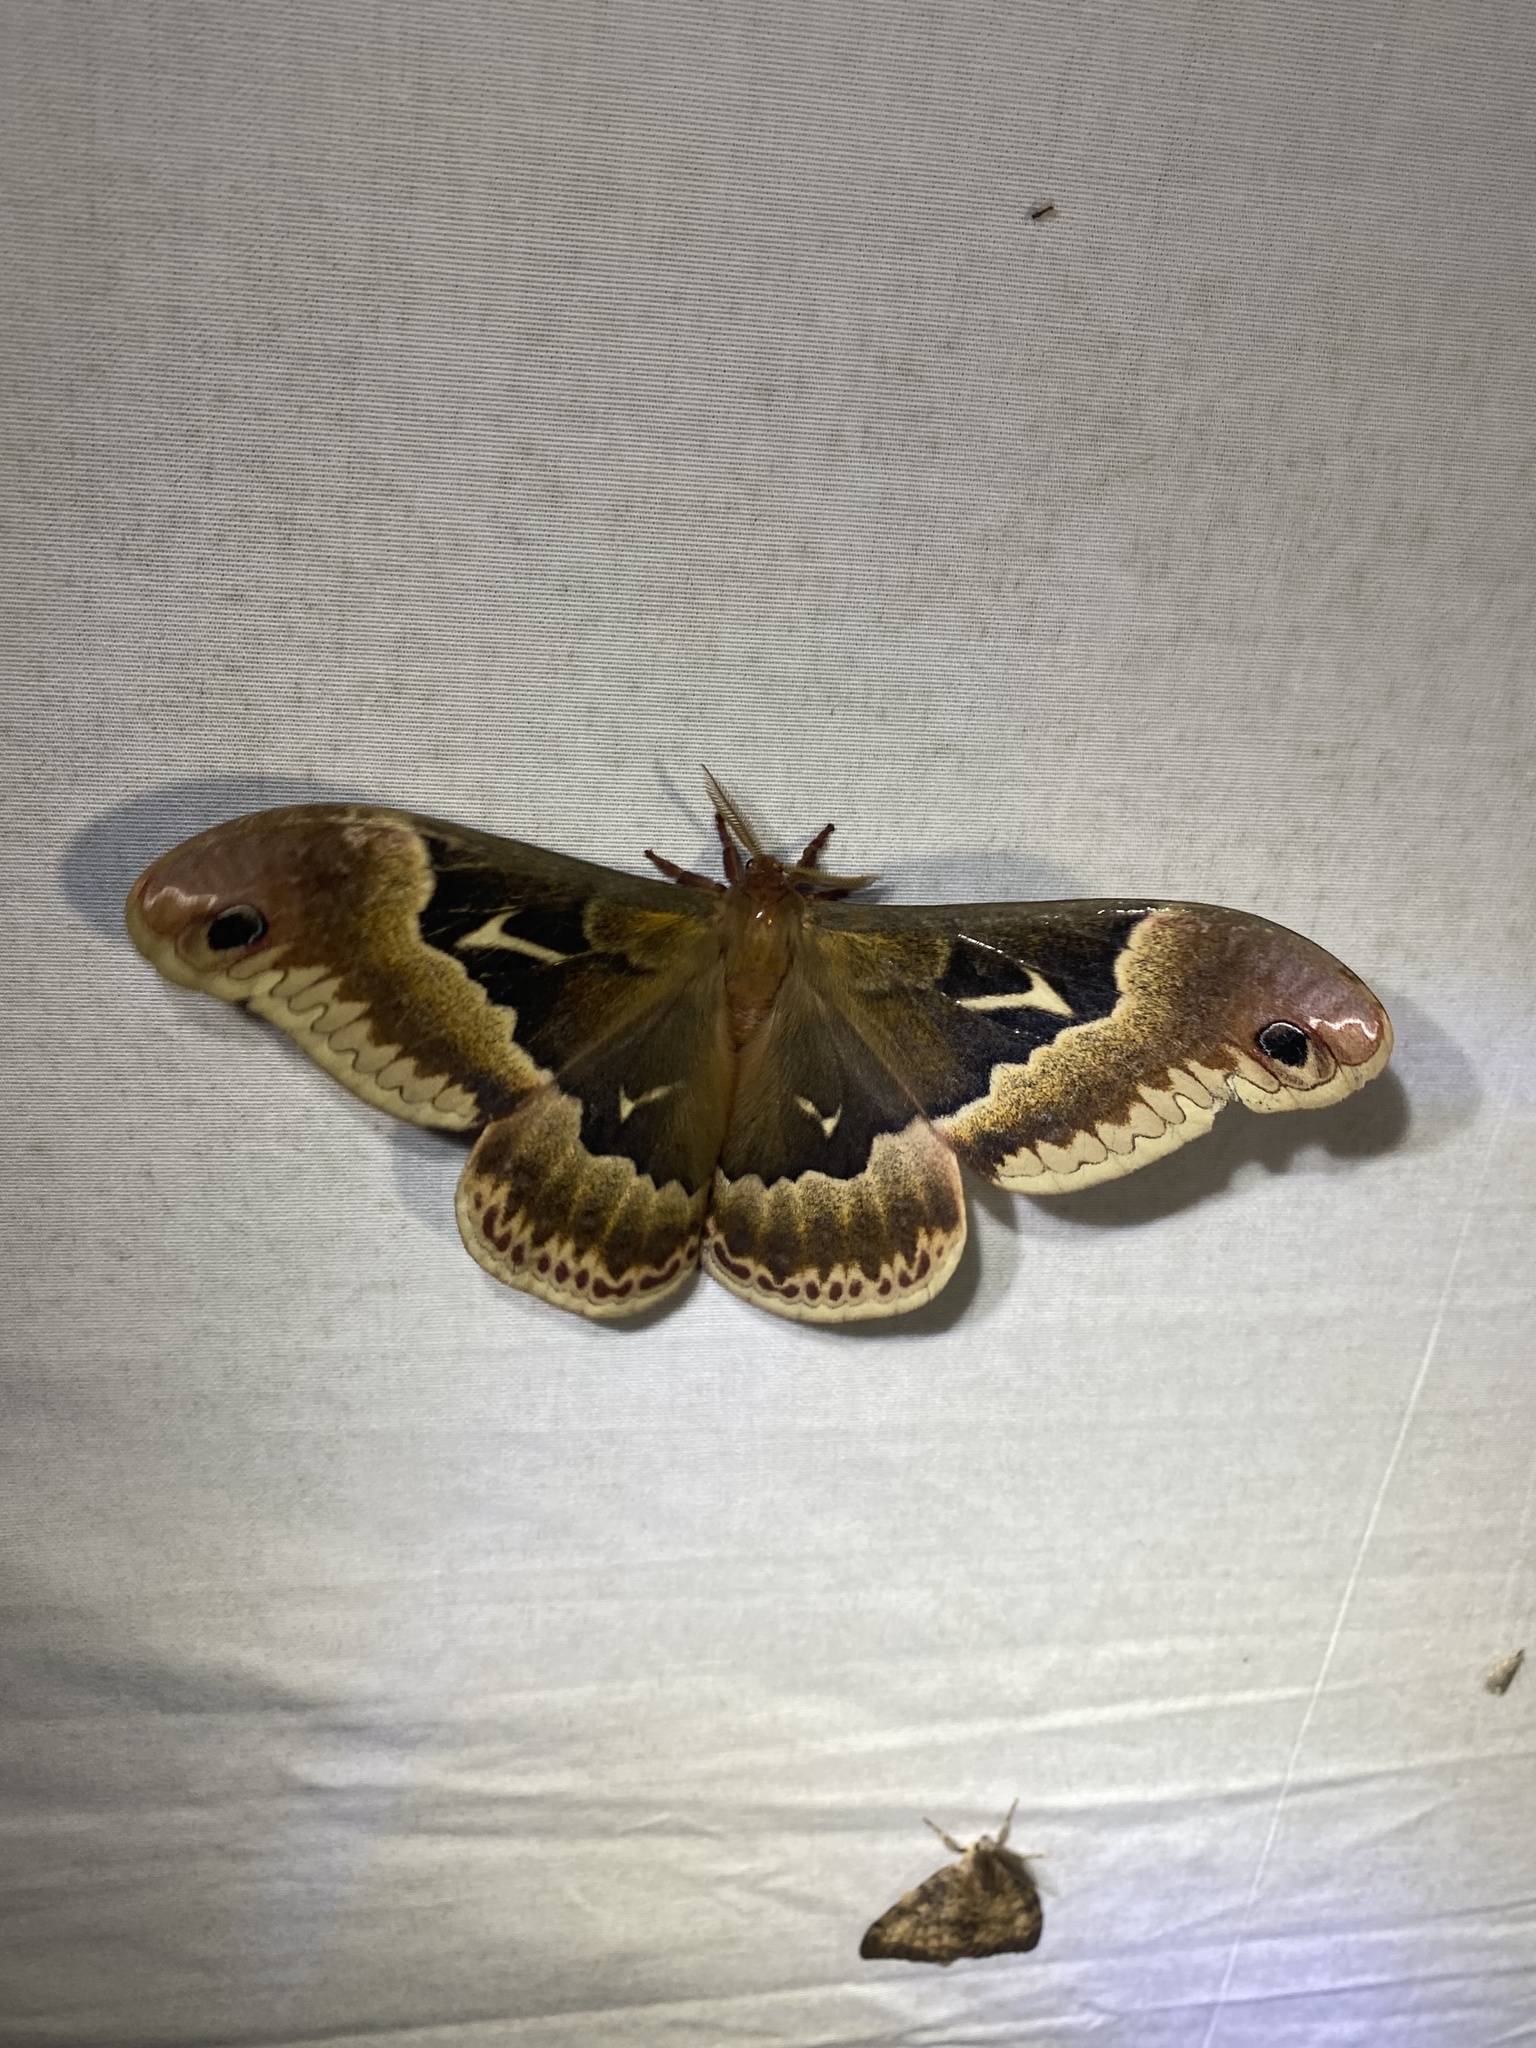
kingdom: Animalia
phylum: Arthropoda
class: Insecta
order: Lepidoptera
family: Saturniidae
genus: Callosamia
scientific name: Callosamia angulifera
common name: Tulip tree silkmoth
